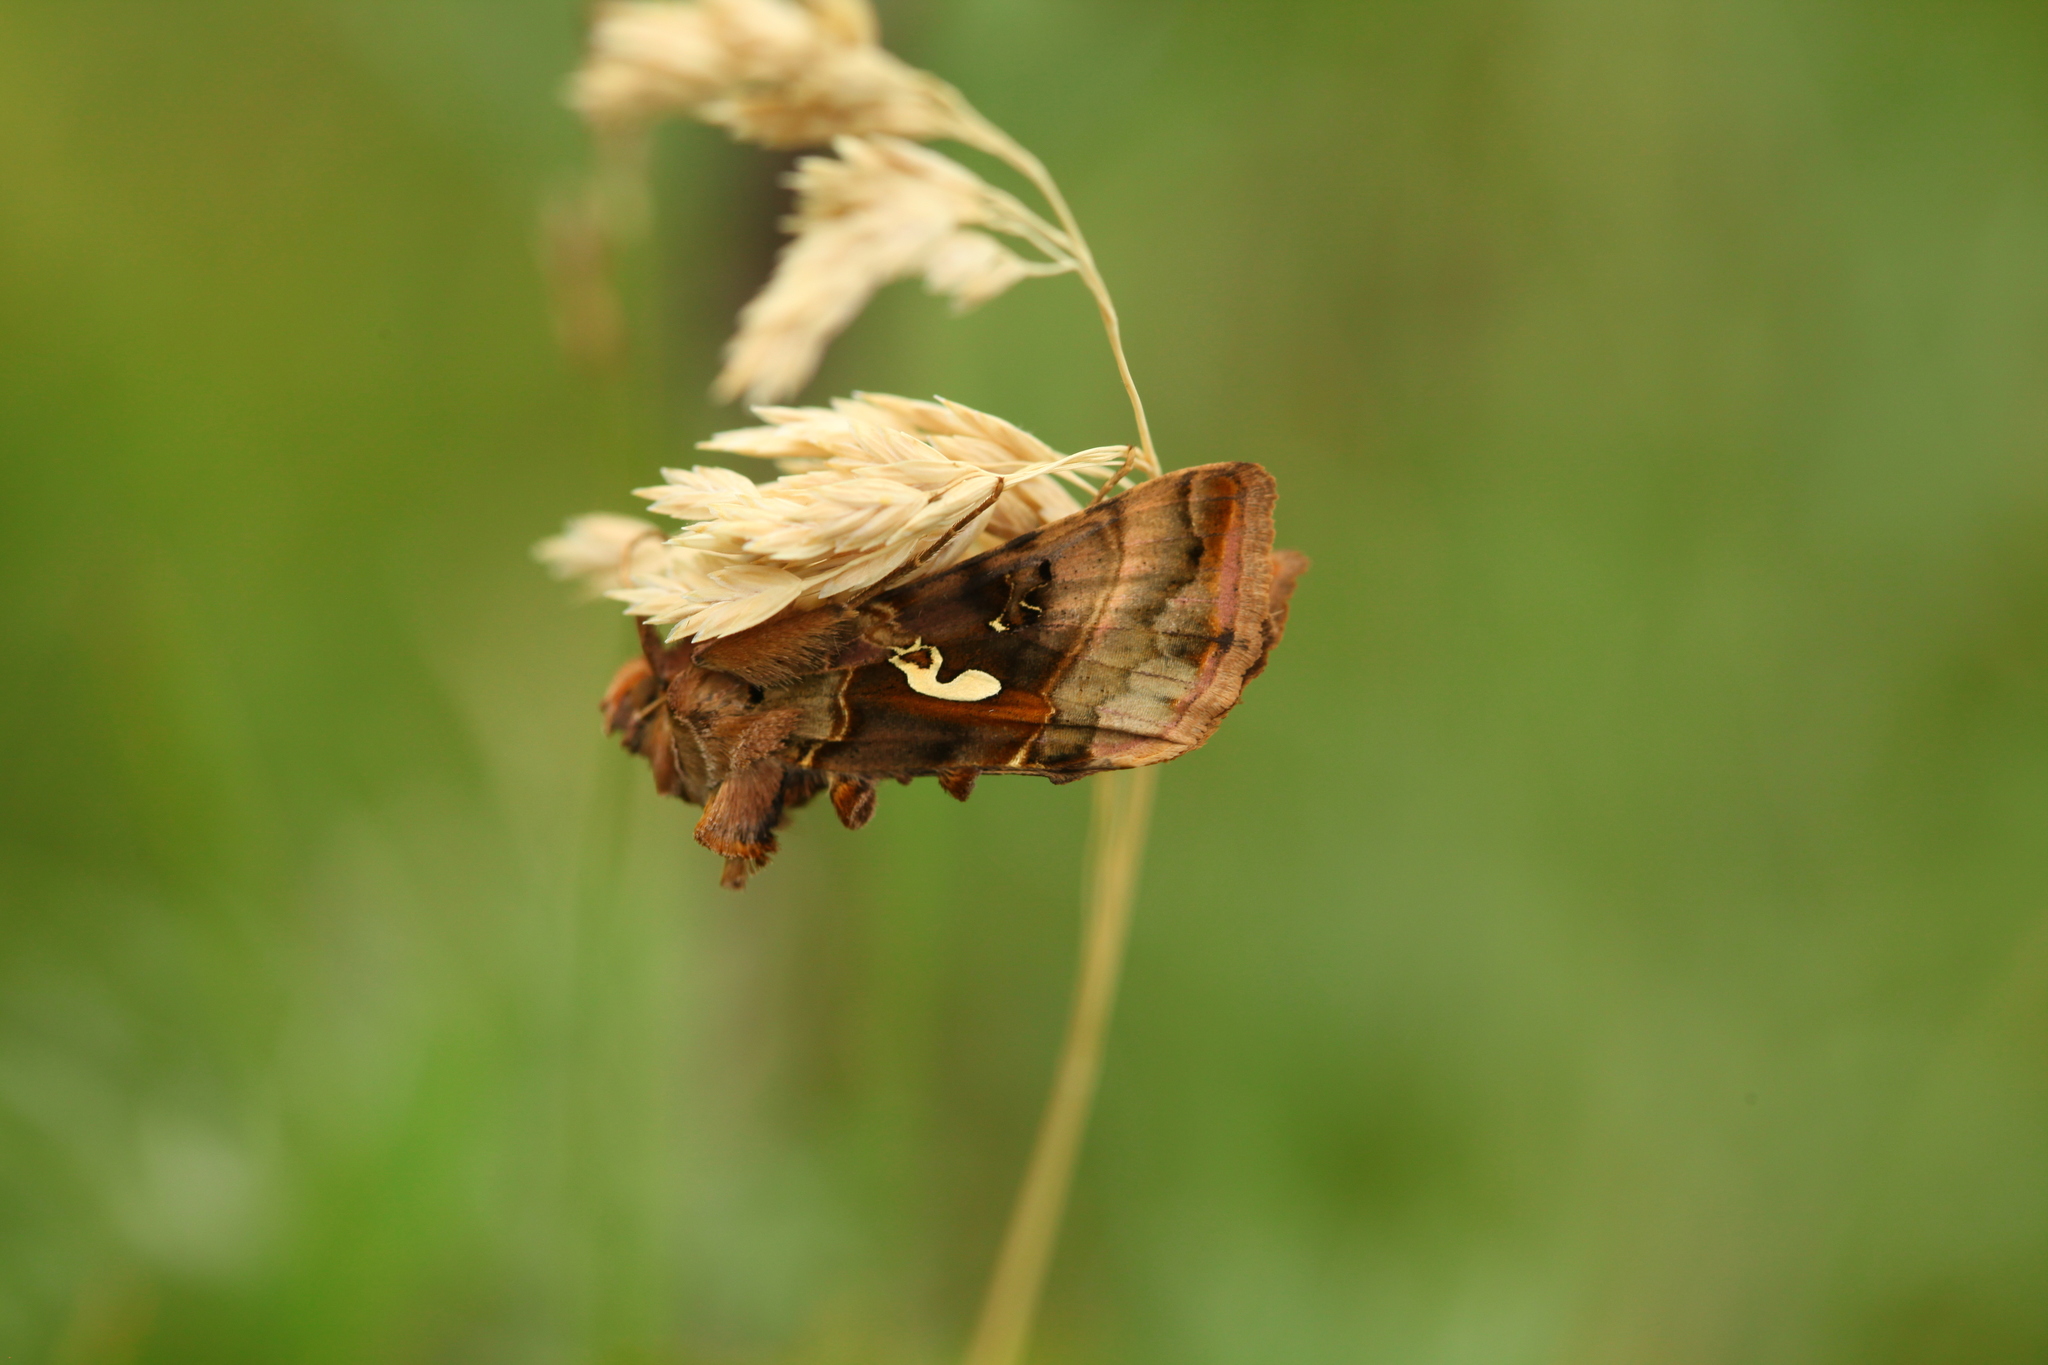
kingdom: Animalia
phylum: Arthropoda
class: Insecta
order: Lepidoptera
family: Noctuidae
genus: Autographa
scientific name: Autographa macrogamma
